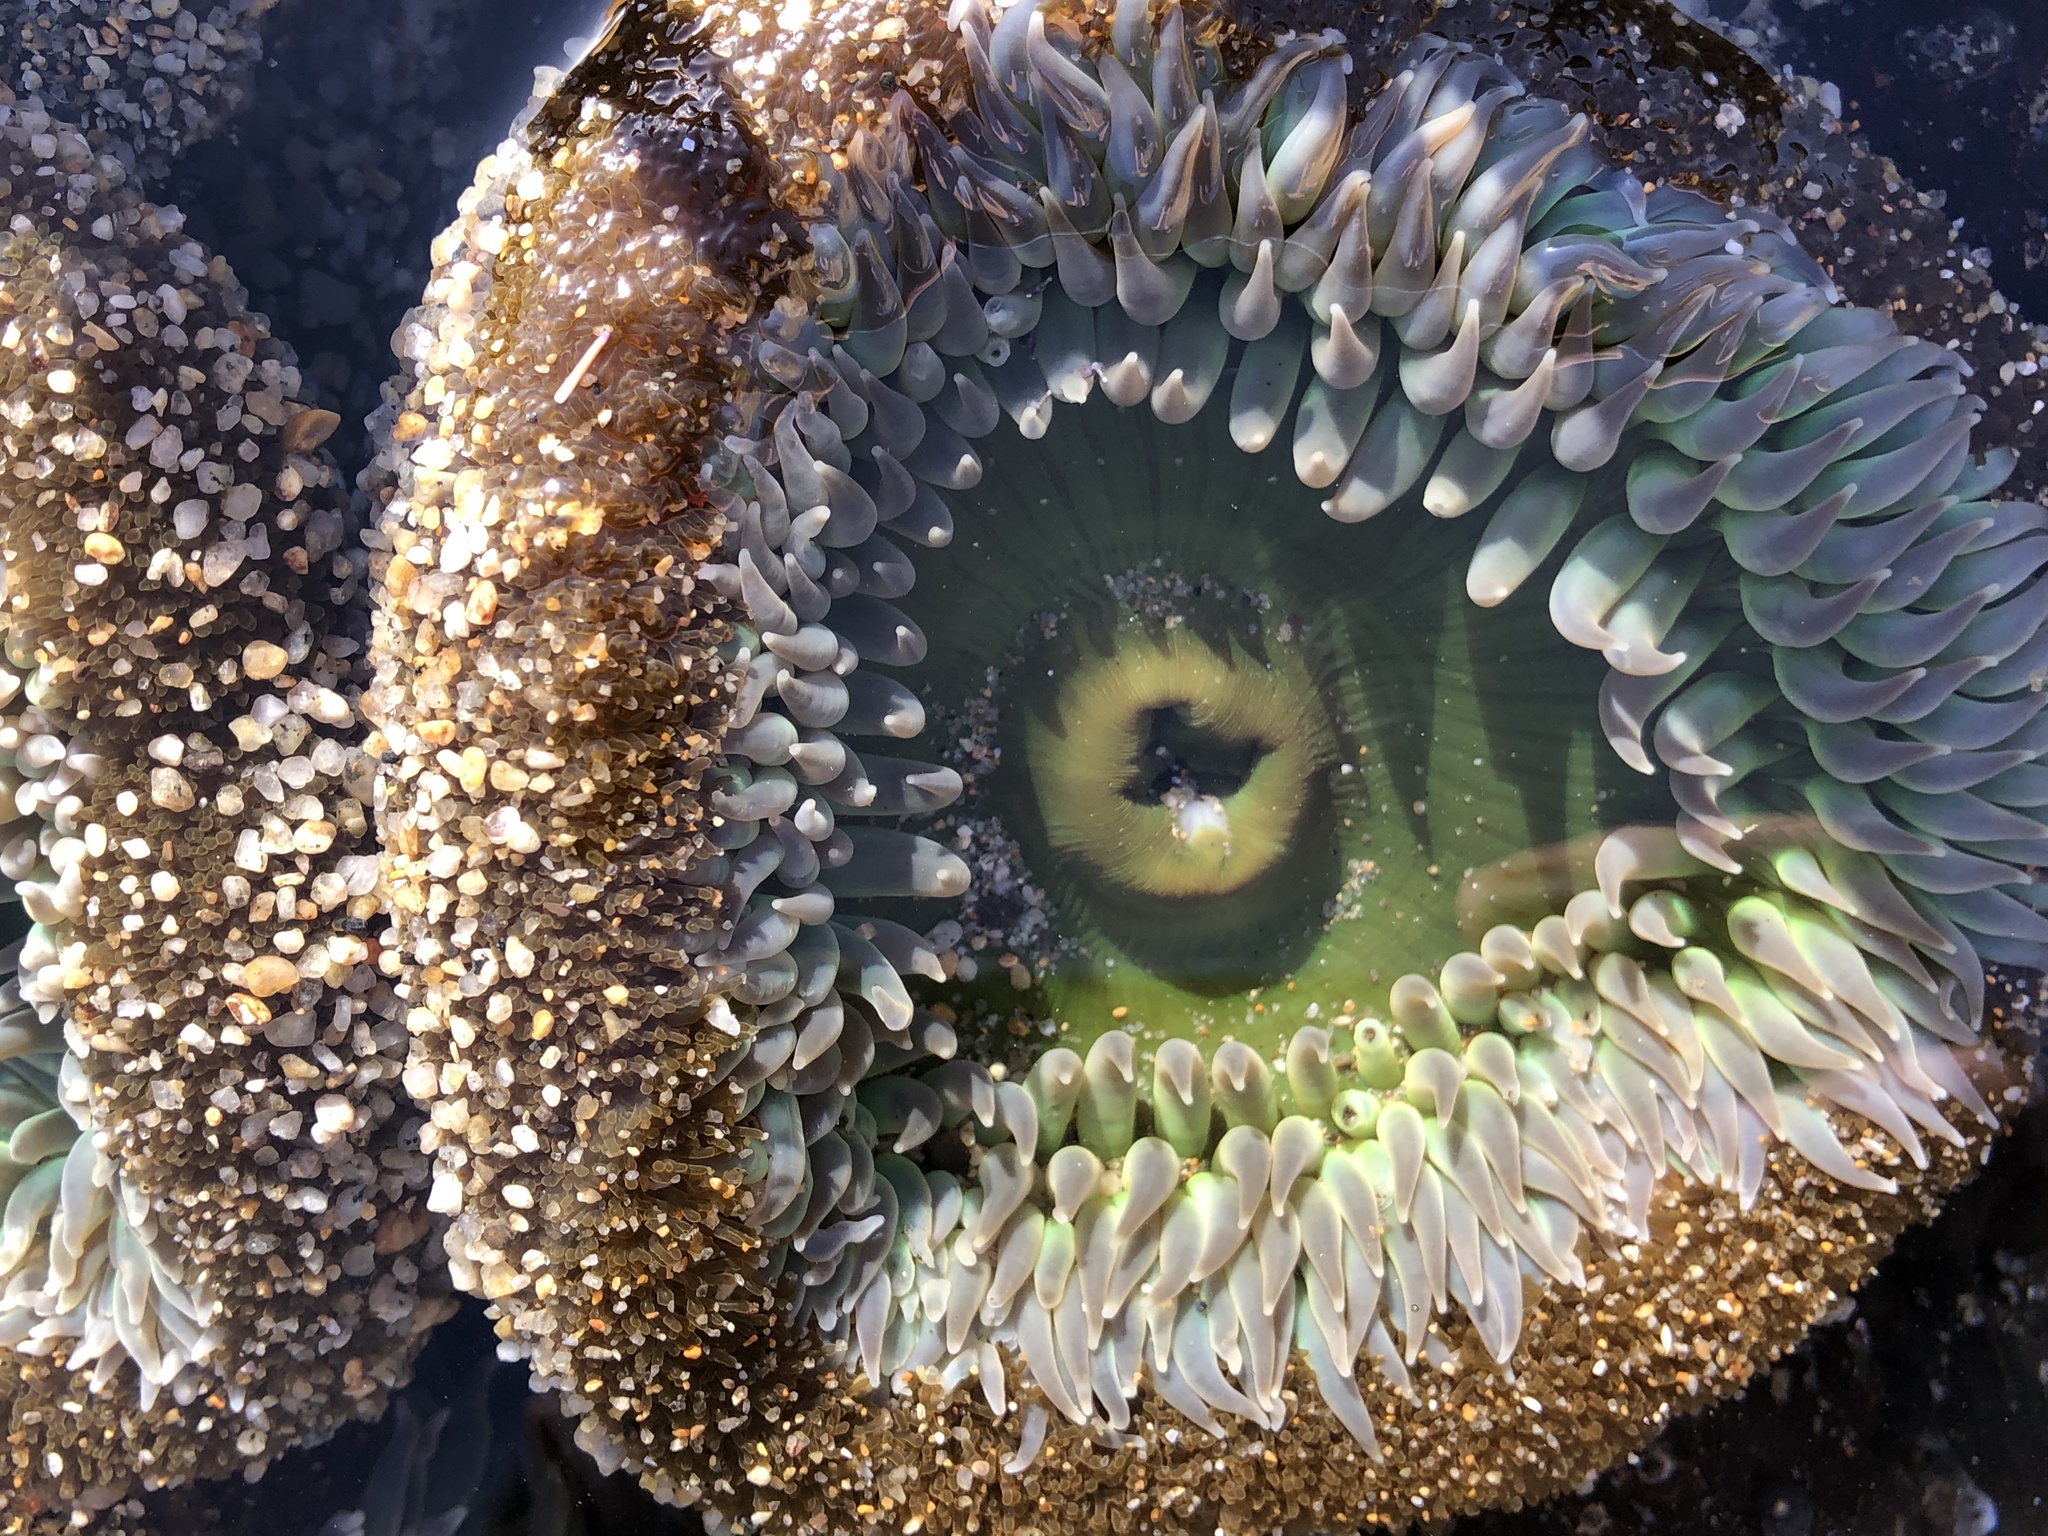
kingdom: Animalia
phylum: Cnidaria
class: Anthozoa
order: Actiniaria
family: Actiniidae
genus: Anthopleura
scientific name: Anthopleura xanthogrammica
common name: Giant green anemone
